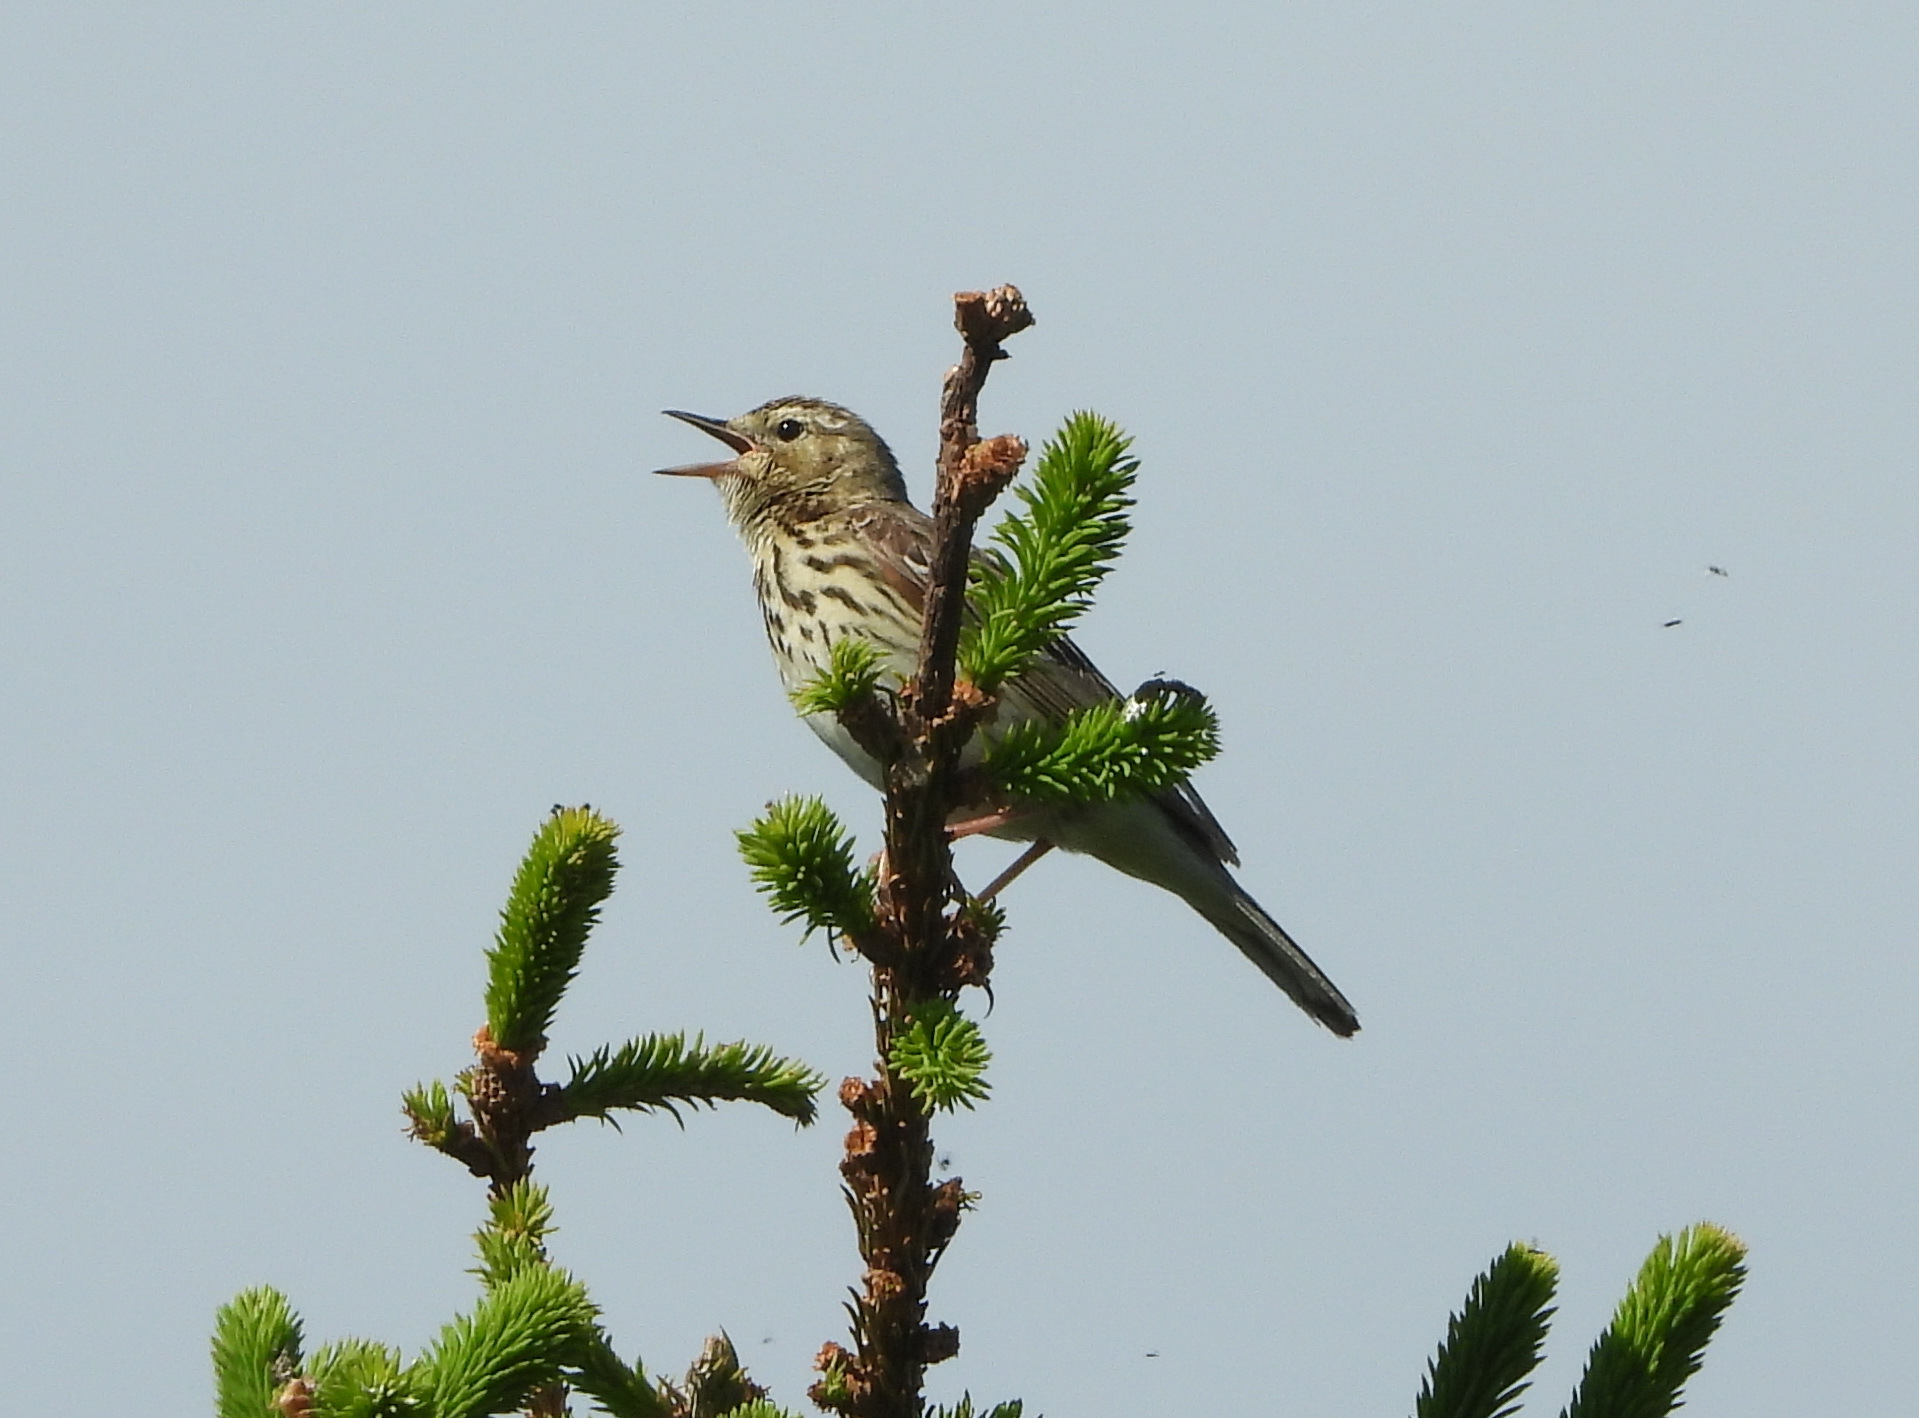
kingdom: Animalia
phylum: Chordata
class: Aves
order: Passeriformes
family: Motacillidae
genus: Anthus
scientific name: Anthus trivialis
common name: Tree pipit
